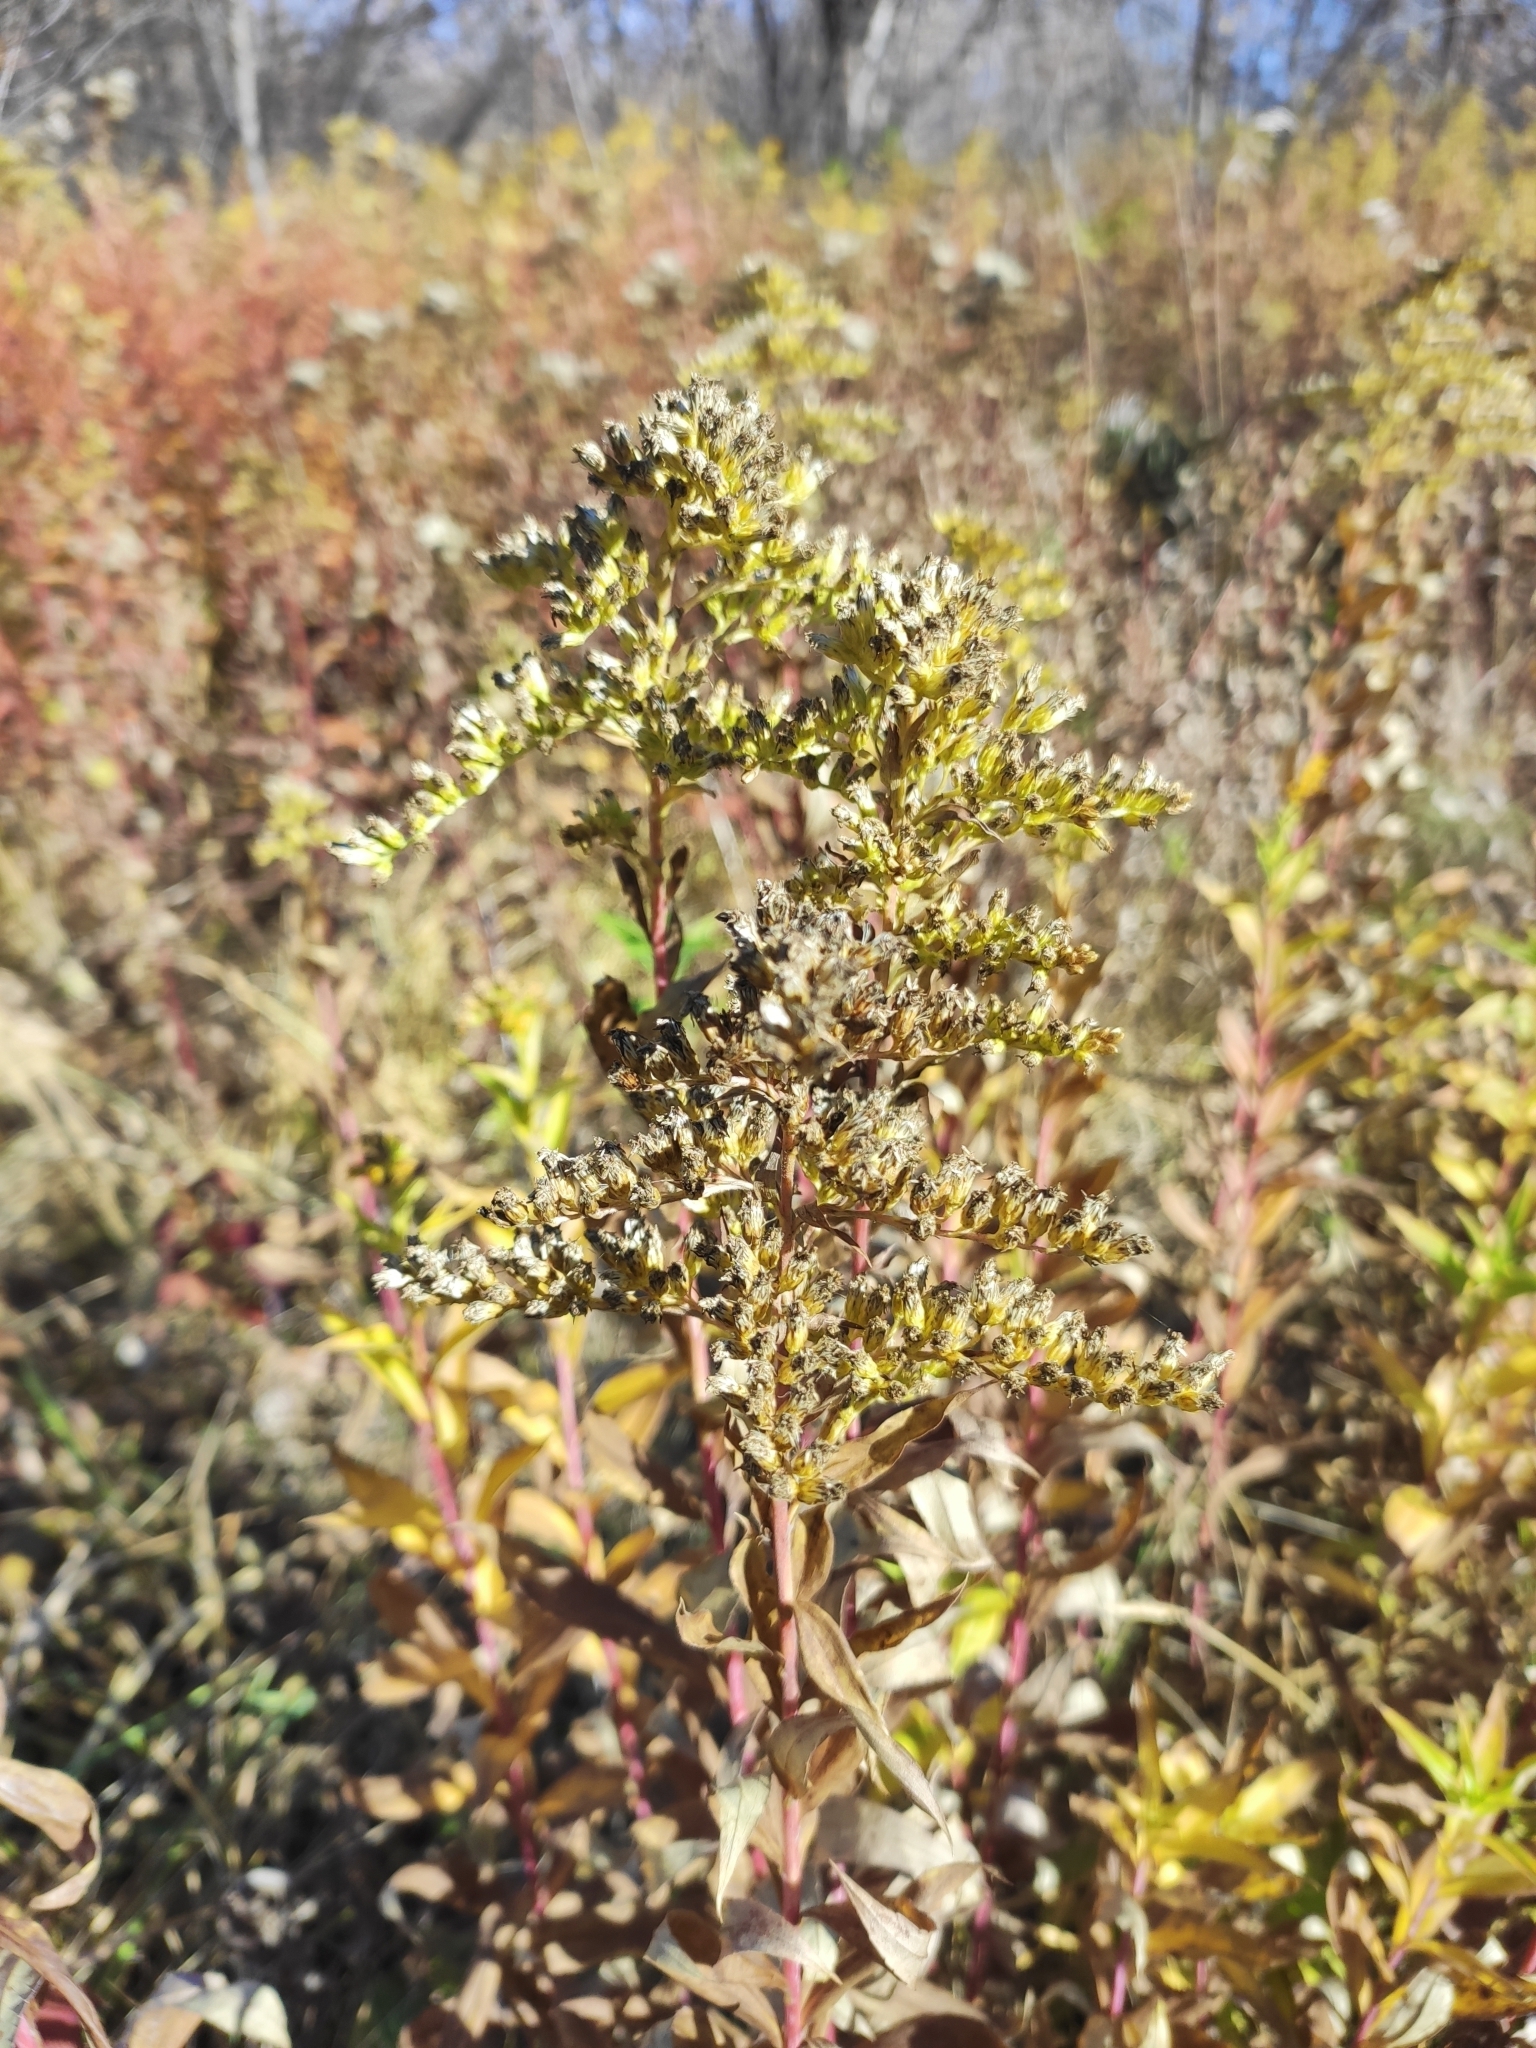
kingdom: Plantae
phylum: Tracheophyta
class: Magnoliopsida
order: Asterales
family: Asteraceae
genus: Solidago
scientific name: Solidago gigantea
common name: Giant goldenrod
